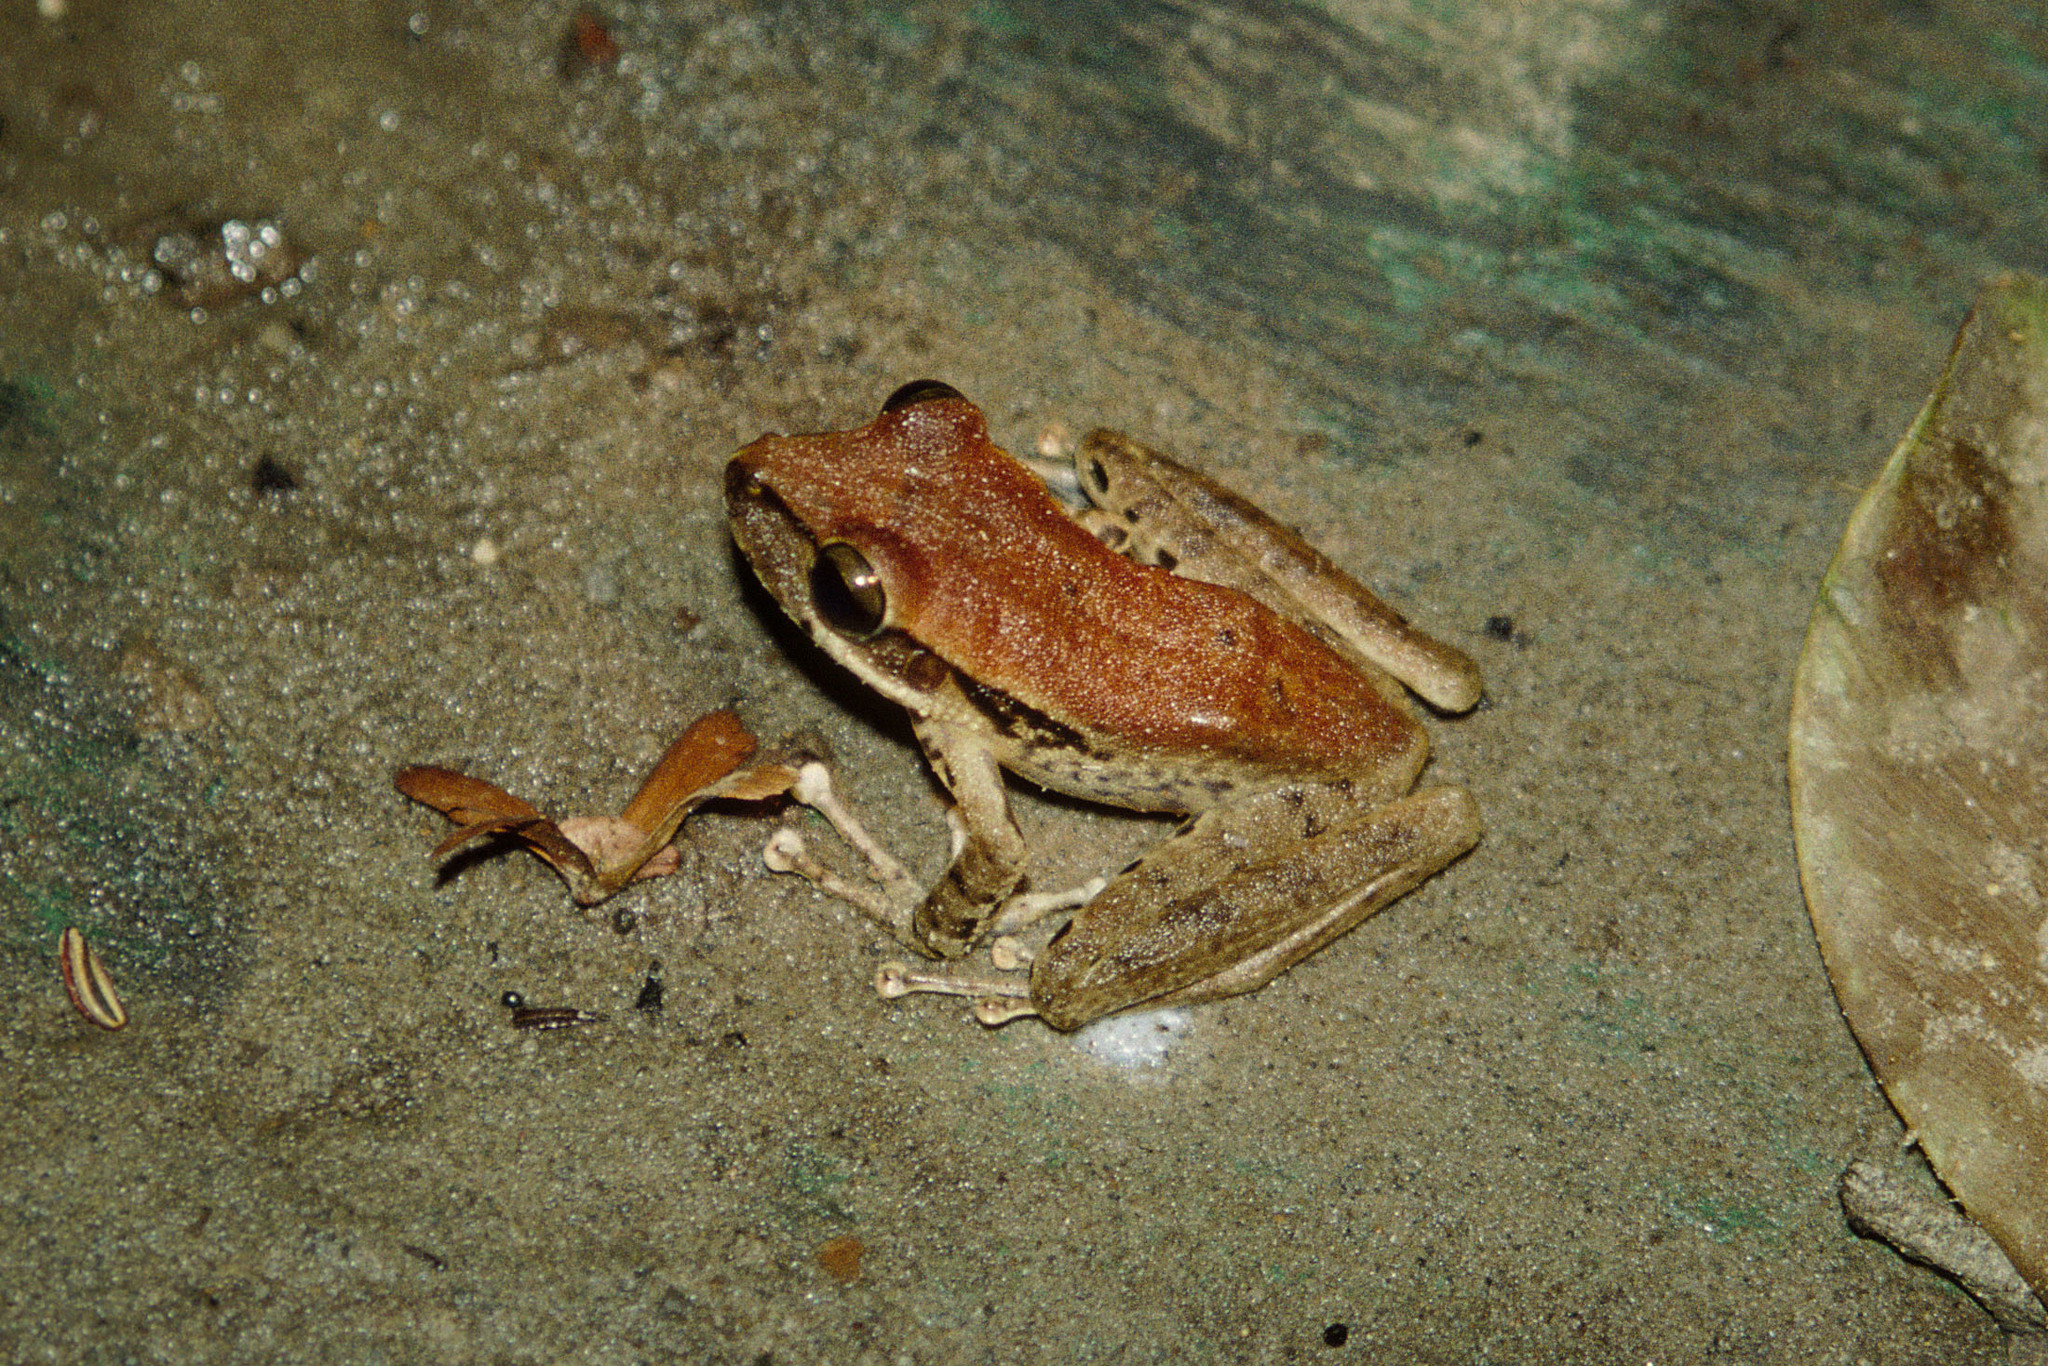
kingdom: Animalia
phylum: Chordata
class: Amphibia
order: Anura
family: Hemiphractidae
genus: Stefania
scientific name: Stefania evansi
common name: Evan’s stefania
